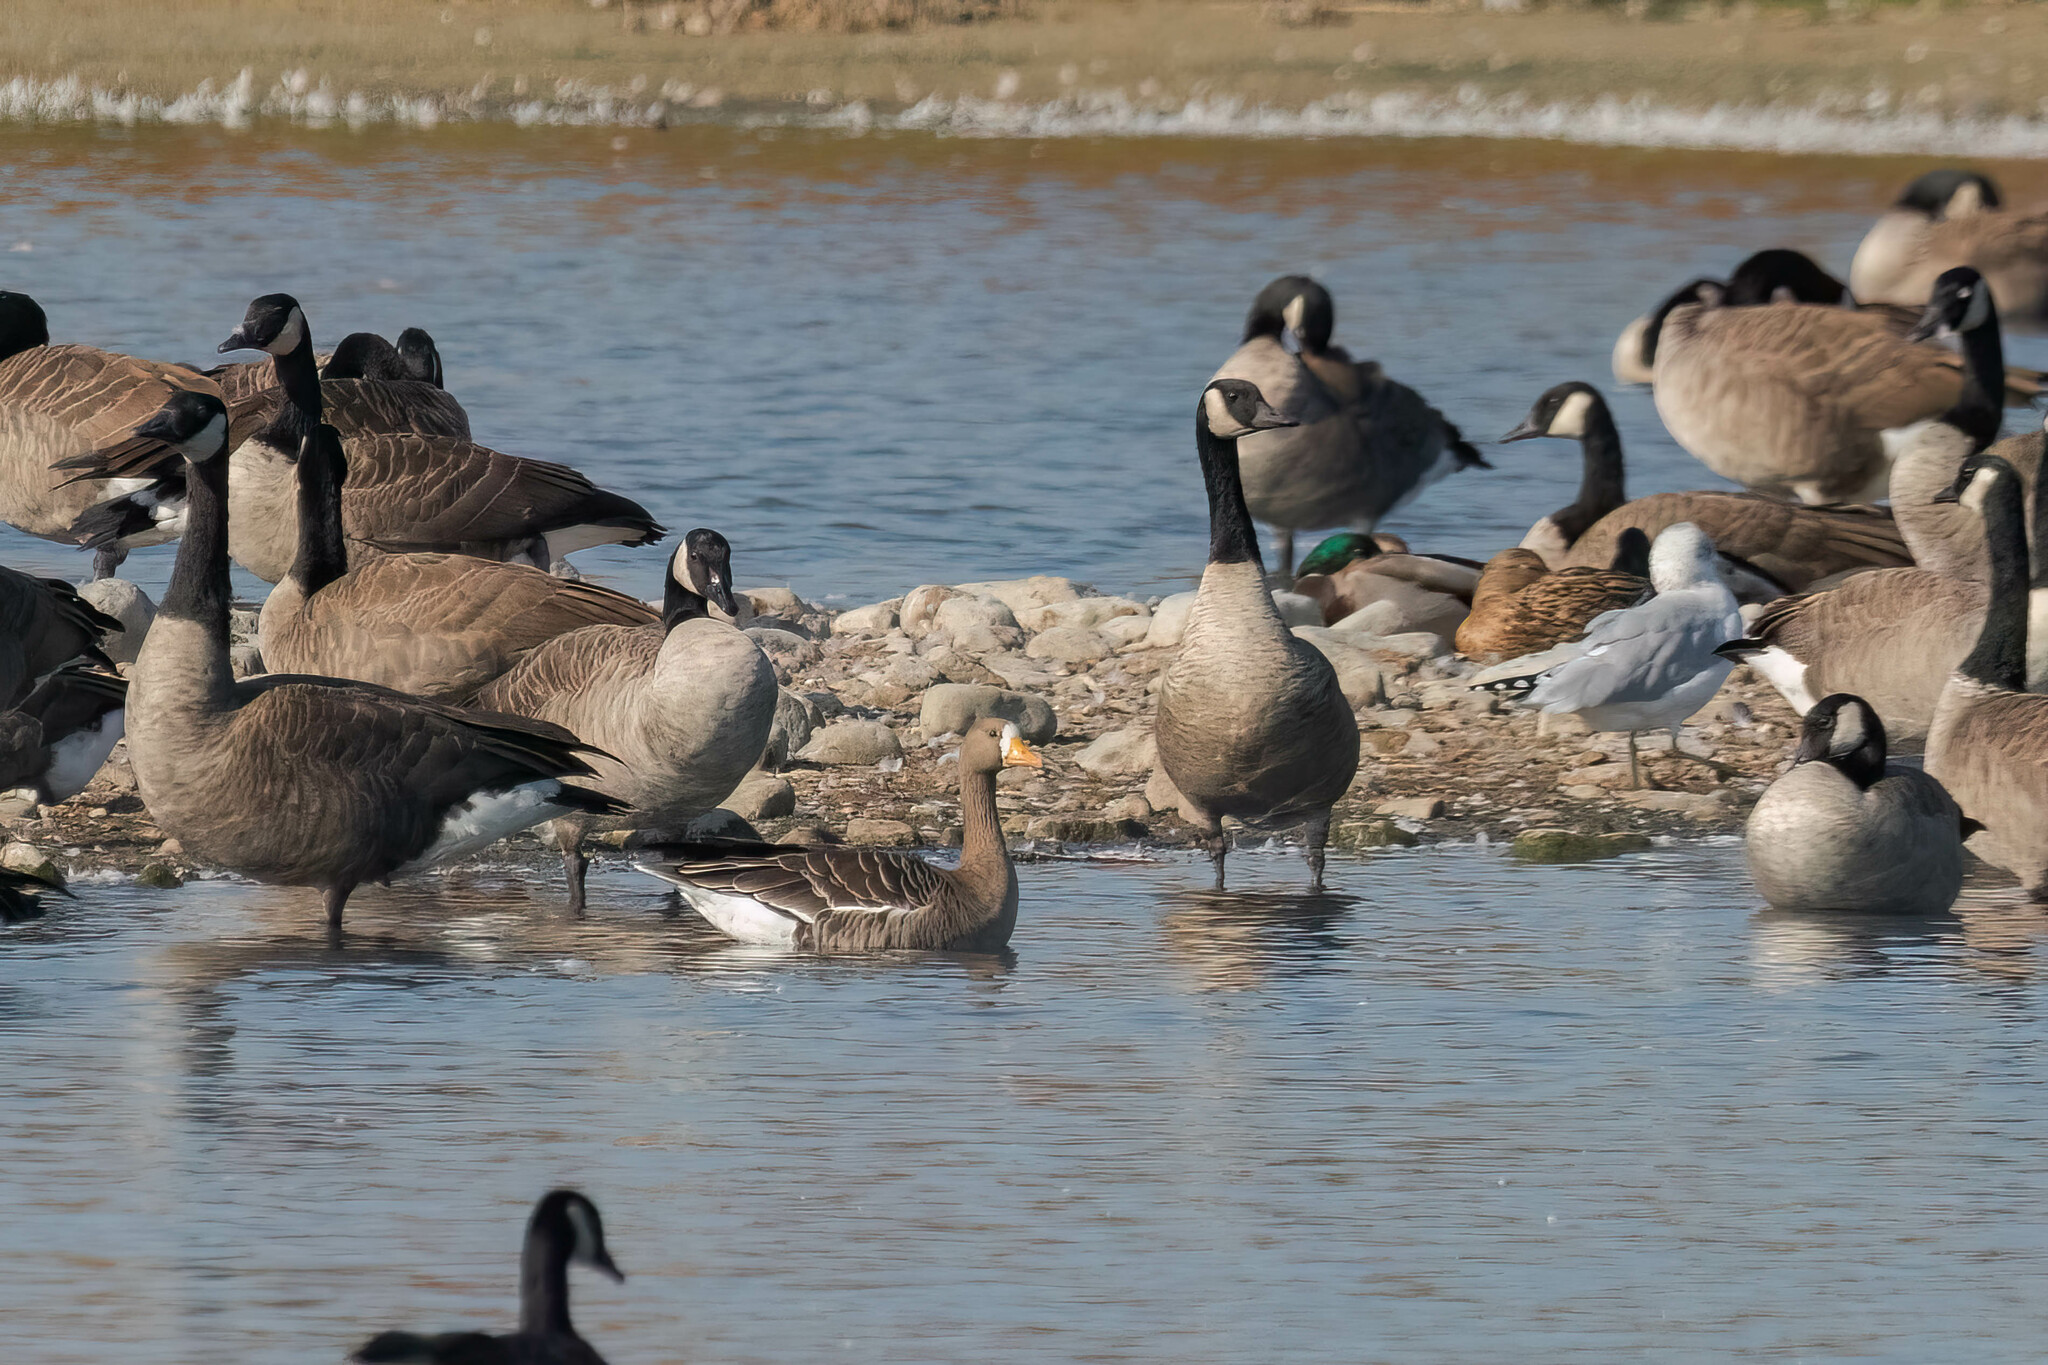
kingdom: Animalia
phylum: Chordata
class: Aves
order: Anseriformes
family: Anatidae
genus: Anser
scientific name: Anser albifrons
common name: Greater white-fronted goose
